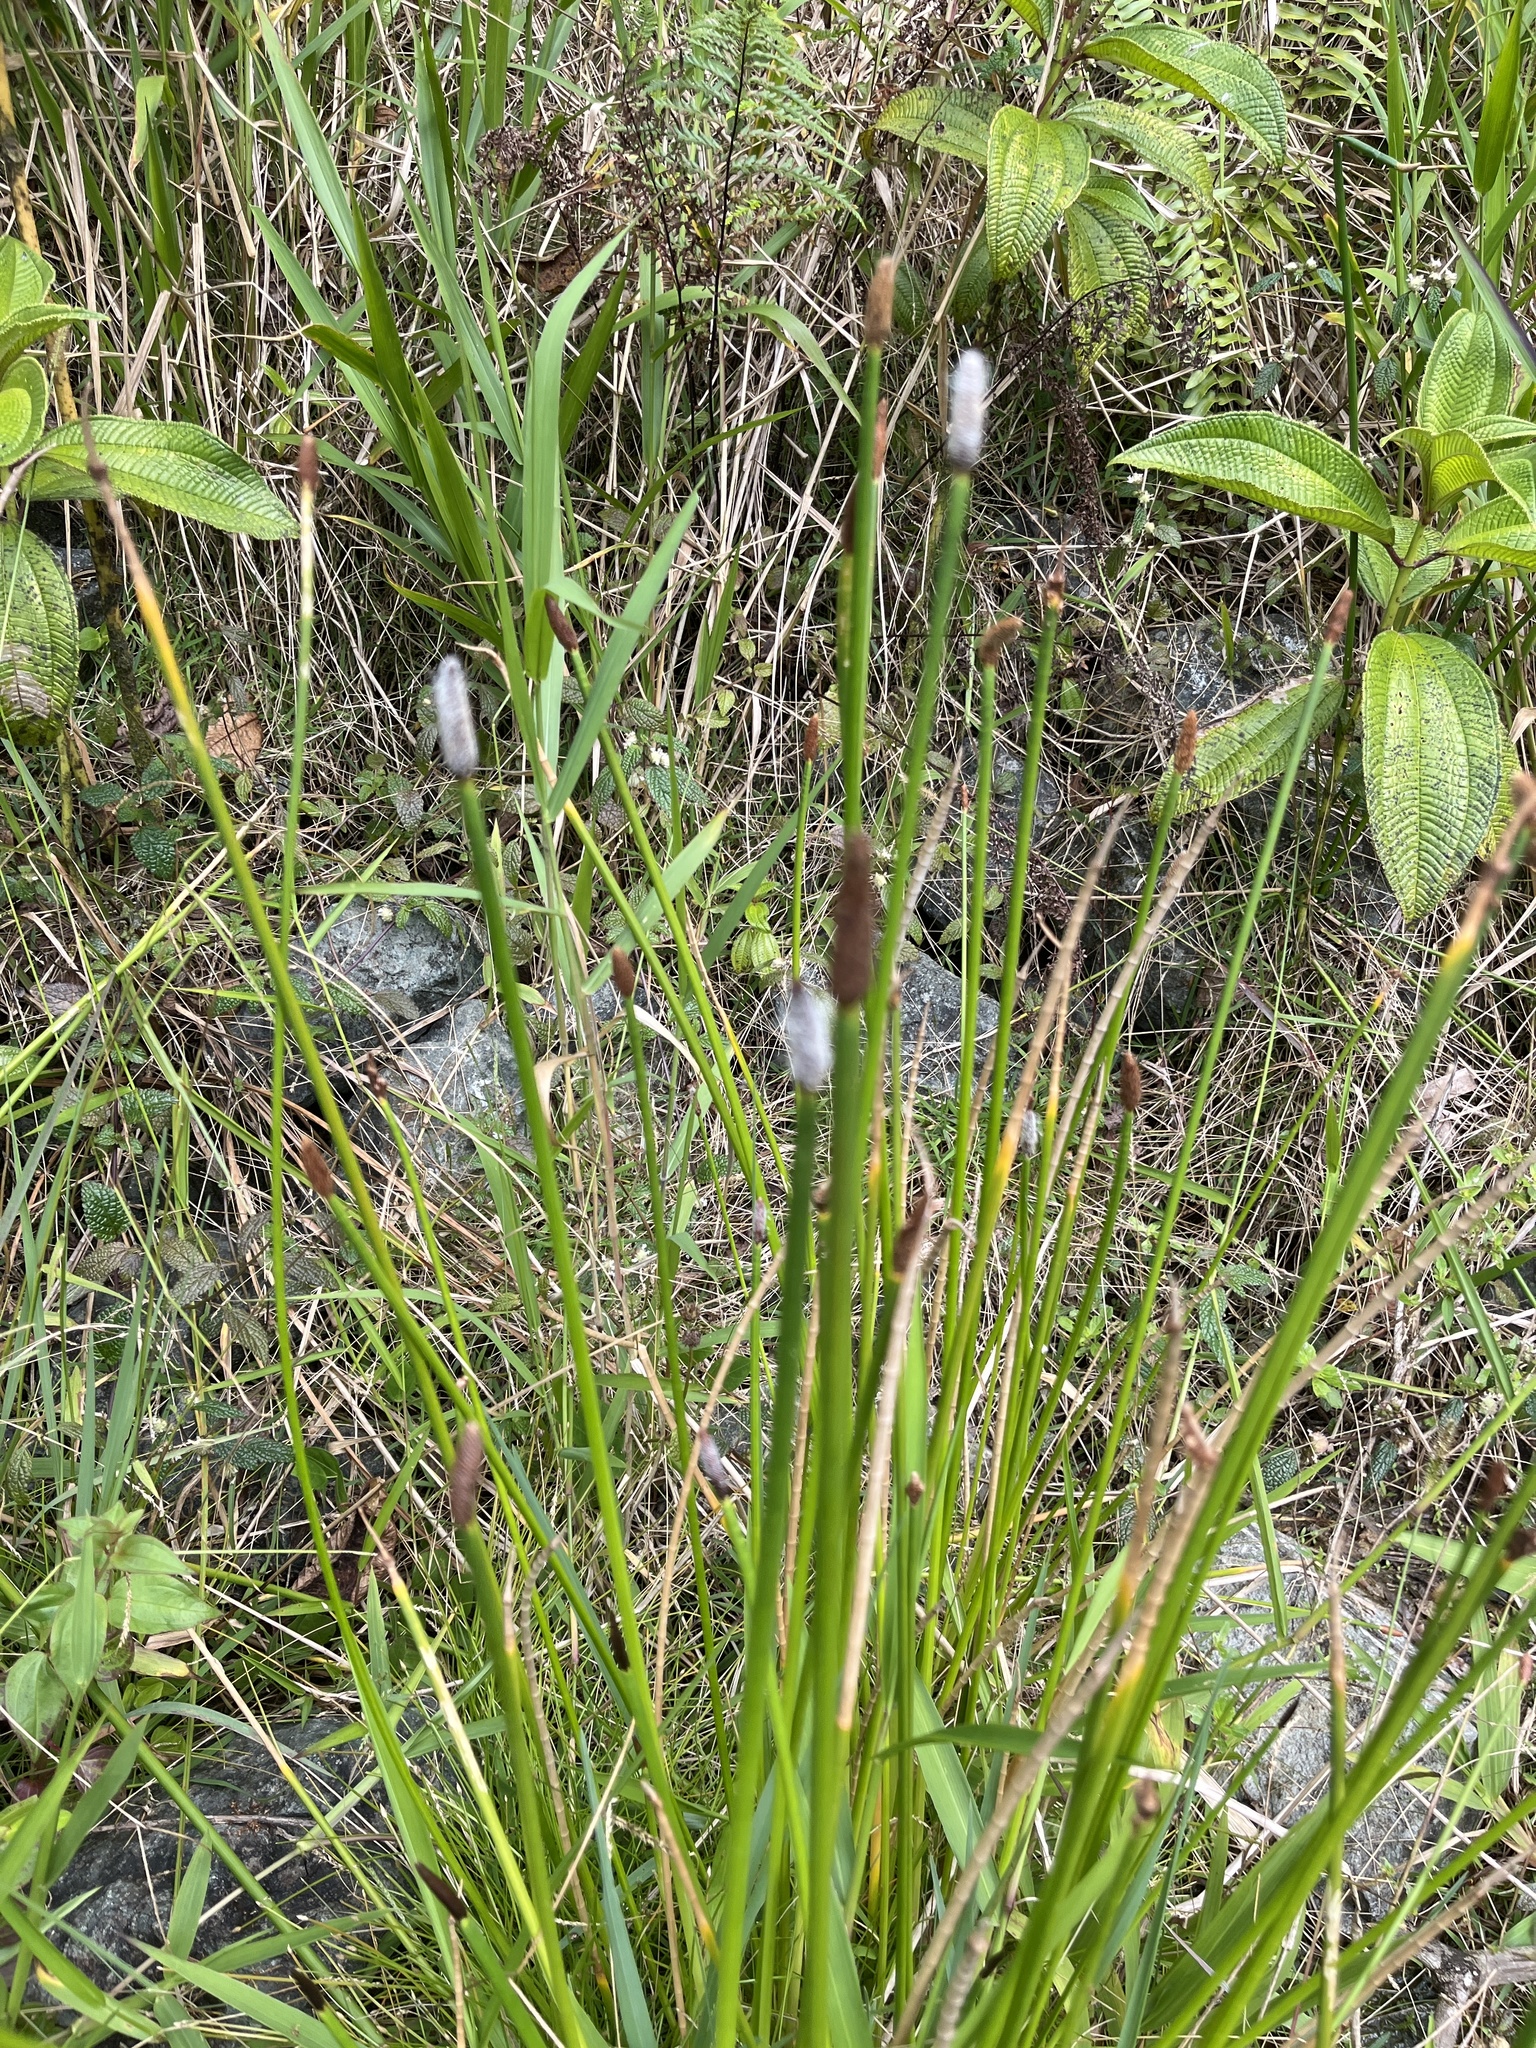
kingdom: Plantae
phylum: Tracheophyta
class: Liliopsida
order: Poales
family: Cyperaceae
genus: Eleocharis
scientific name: Eleocharis elegans
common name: Elegant spike-rush
